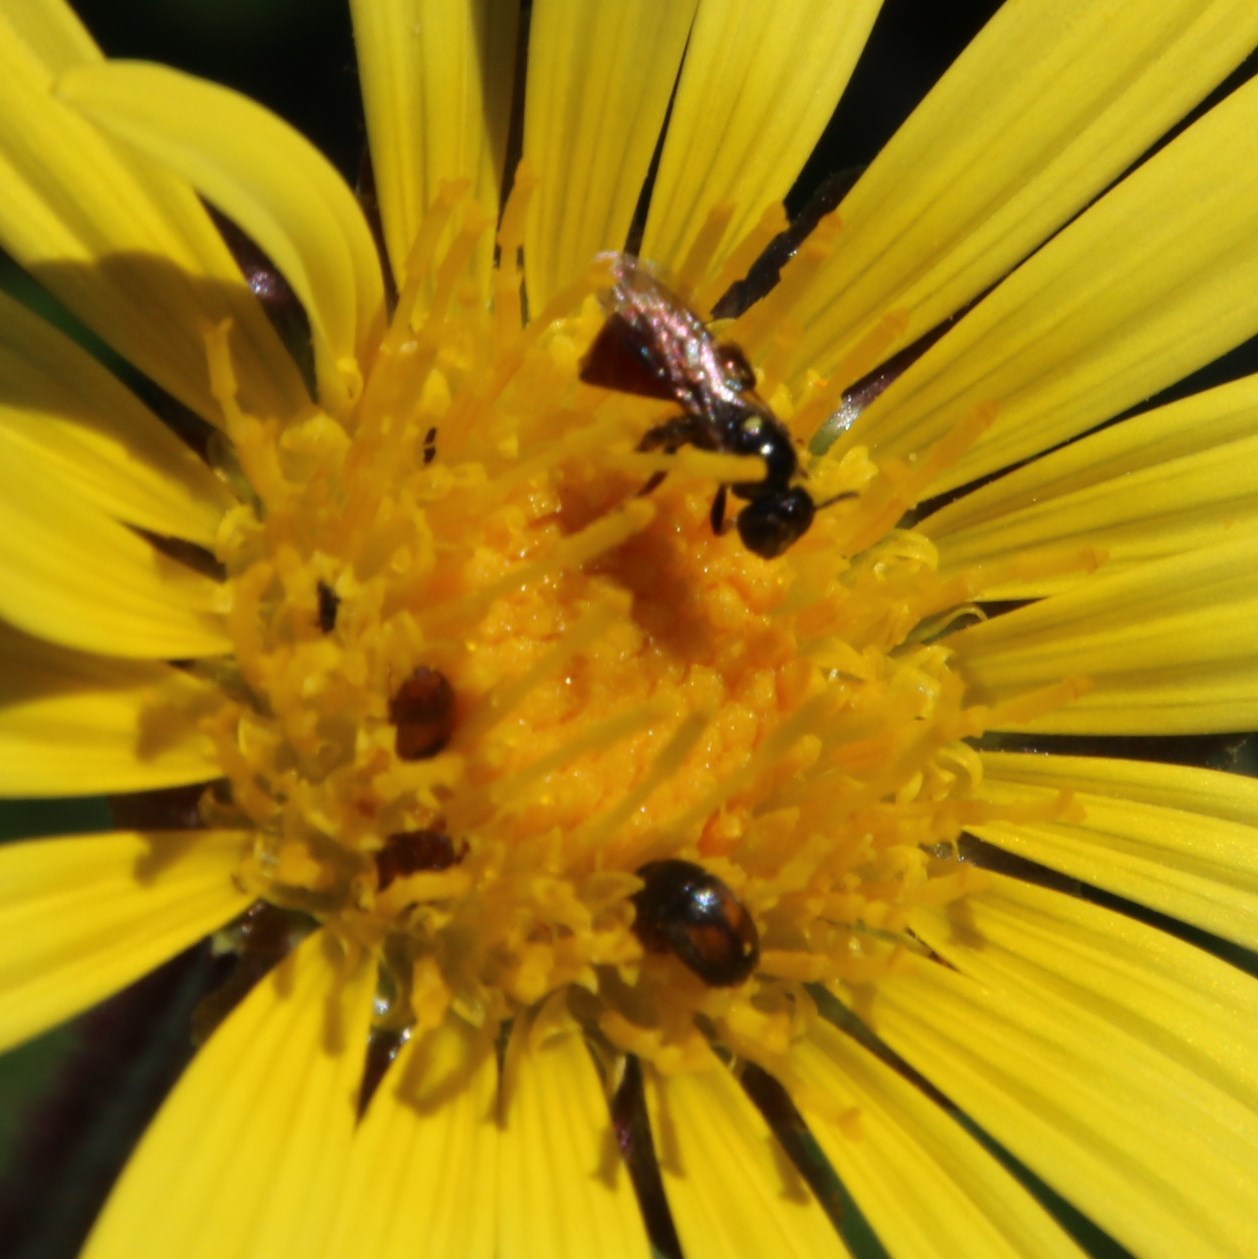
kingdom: Plantae
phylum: Tracheophyta
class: Magnoliopsida
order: Asterales
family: Asteraceae
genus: Arctotheca
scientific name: Arctotheca prostrata
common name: Capeweed
